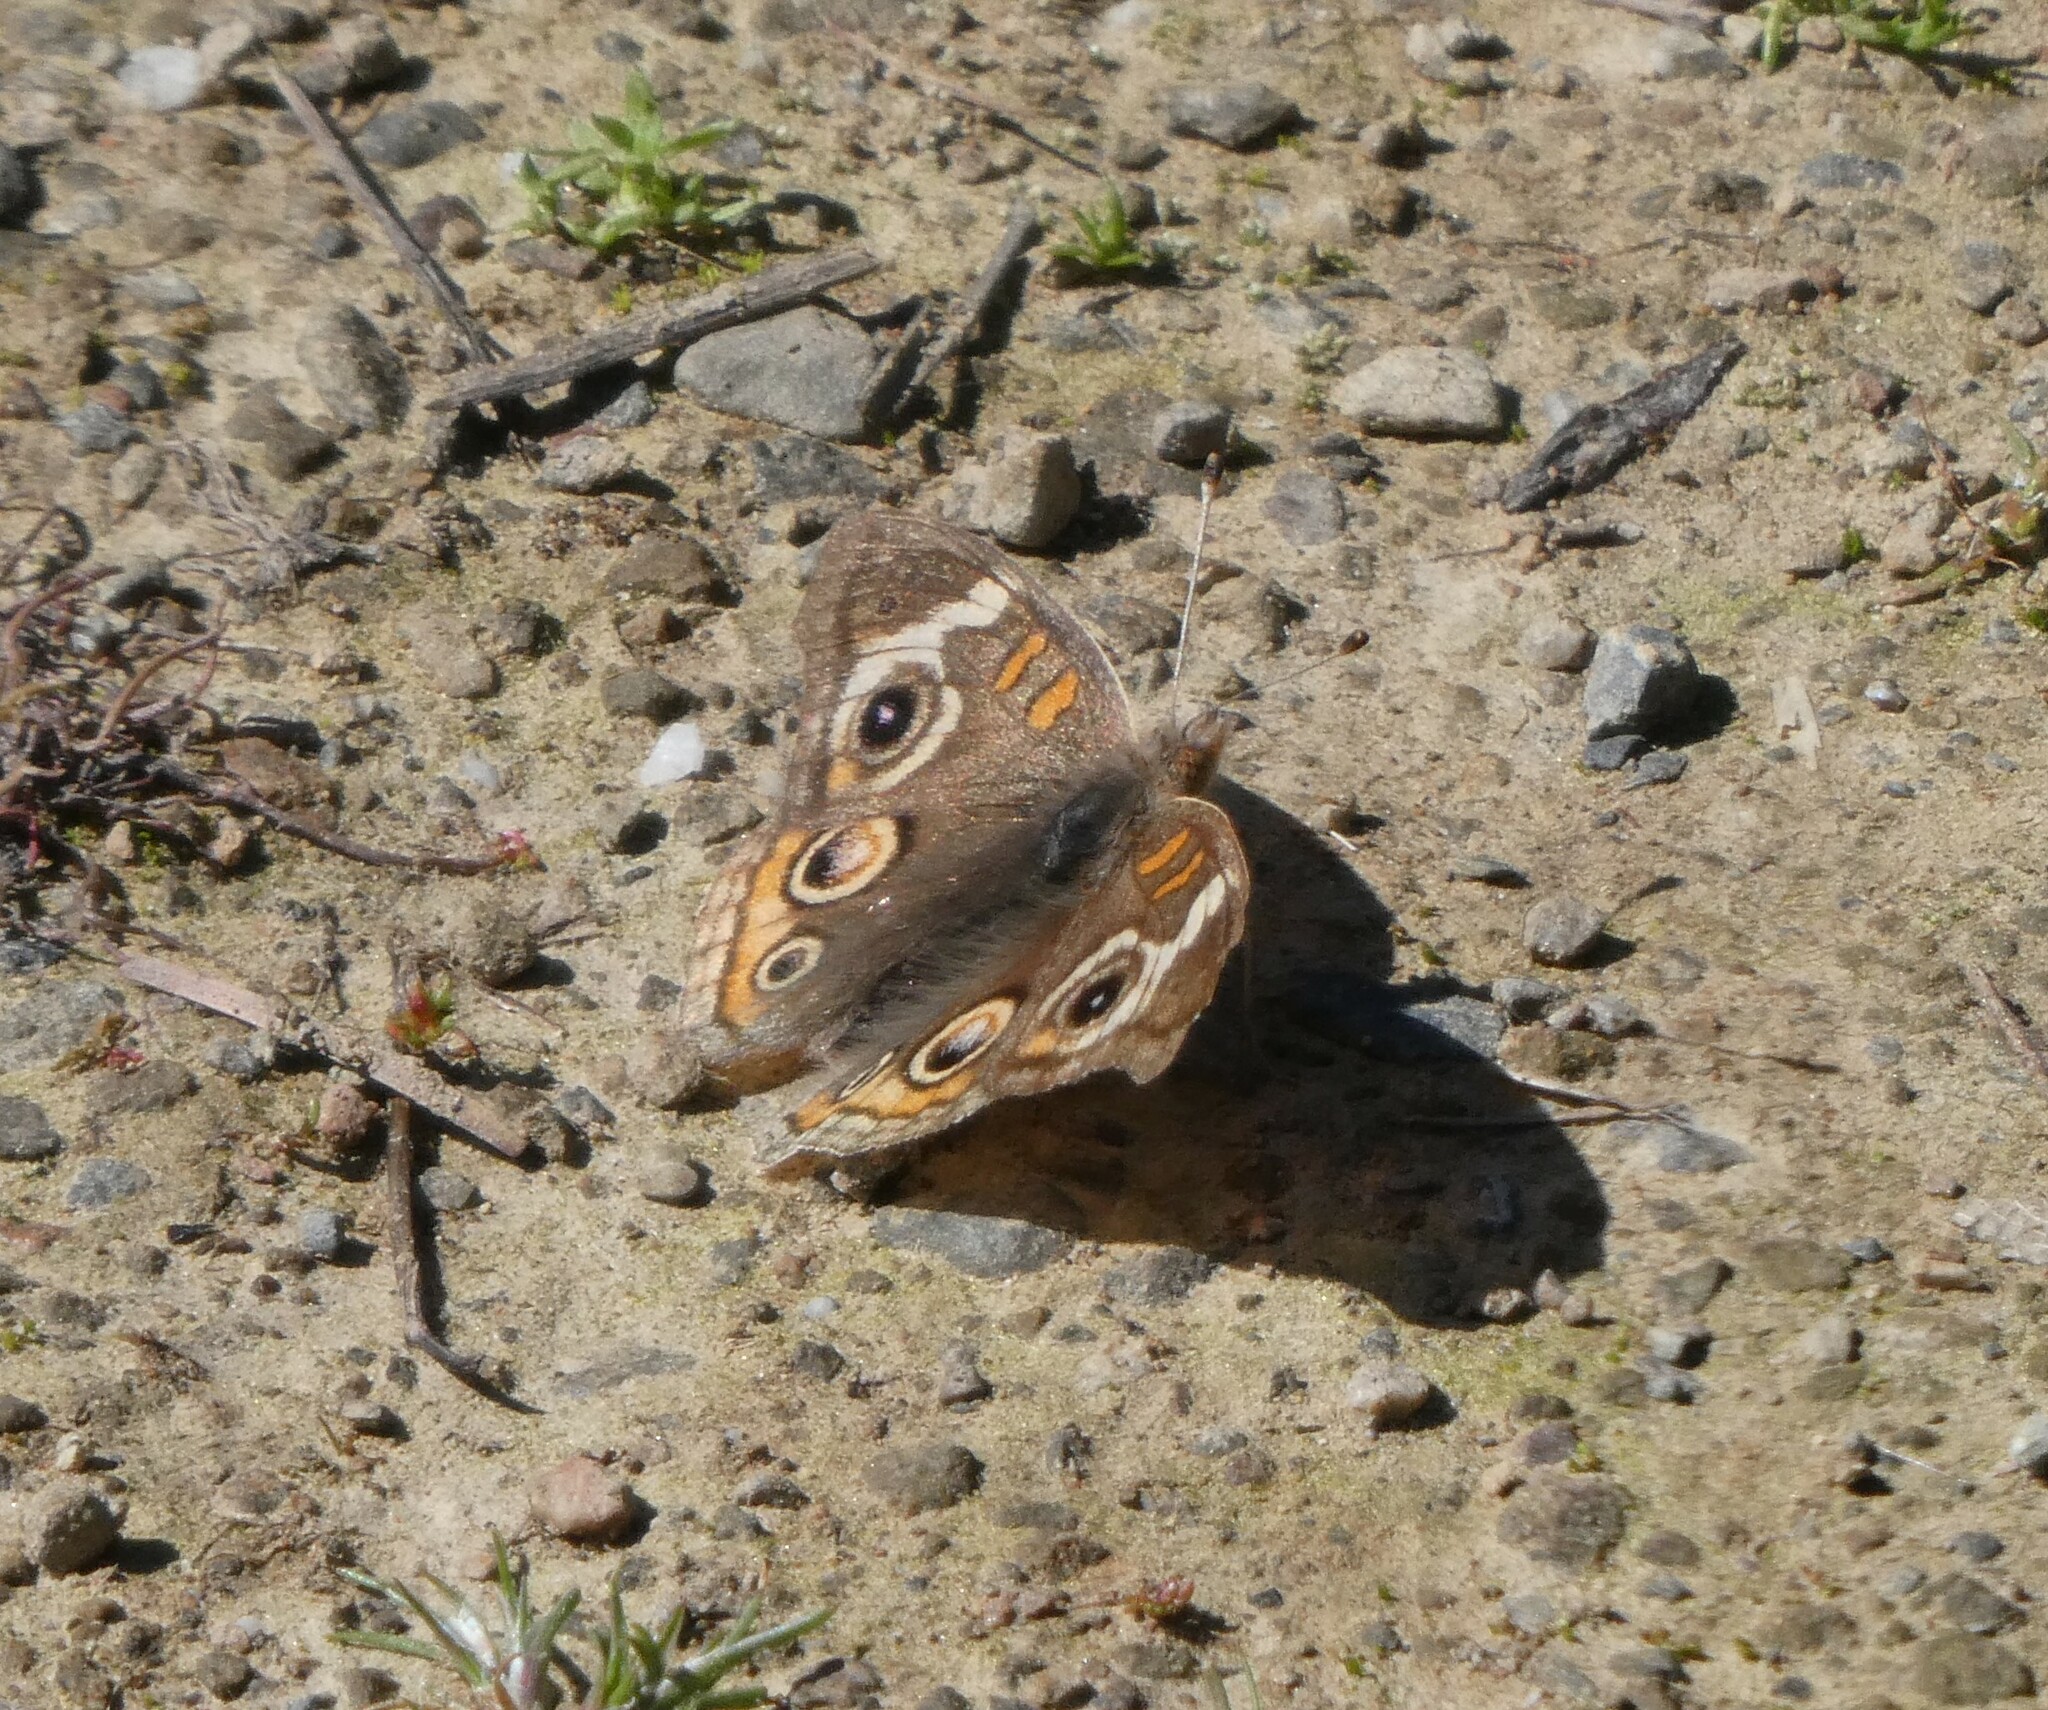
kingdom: Animalia
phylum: Arthropoda
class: Insecta
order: Lepidoptera
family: Nymphalidae
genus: Junonia
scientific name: Junonia grisea
